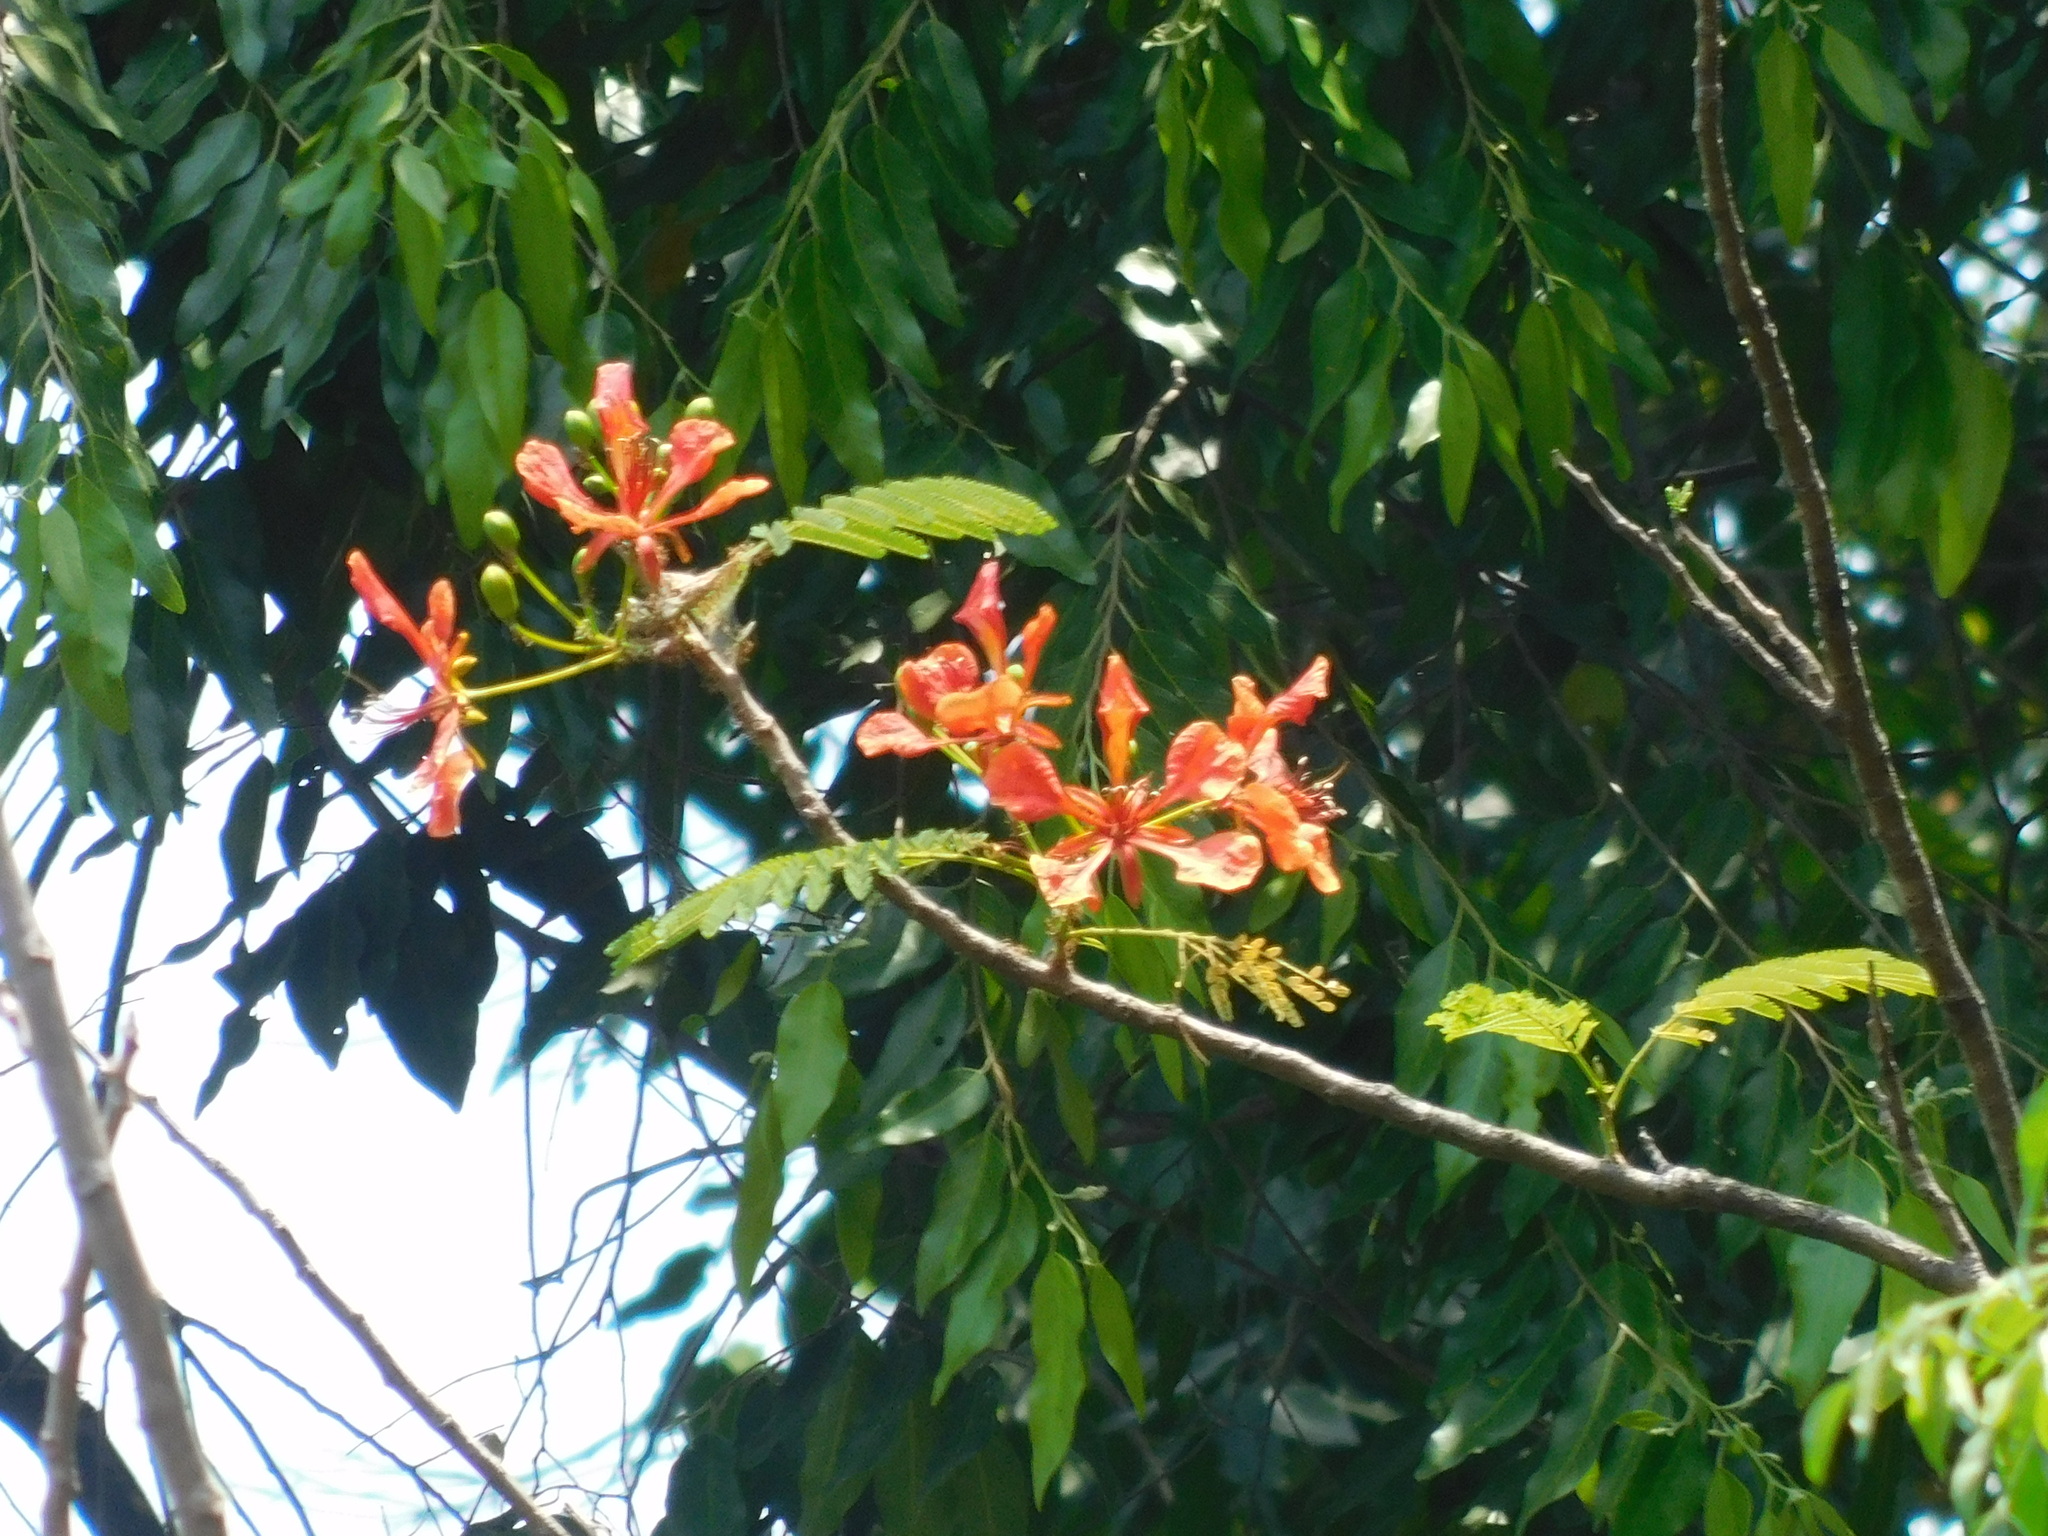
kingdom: Plantae
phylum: Tracheophyta
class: Magnoliopsida
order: Fabales
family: Fabaceae
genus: Delonix
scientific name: Delonix regia
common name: Royal poinciana
